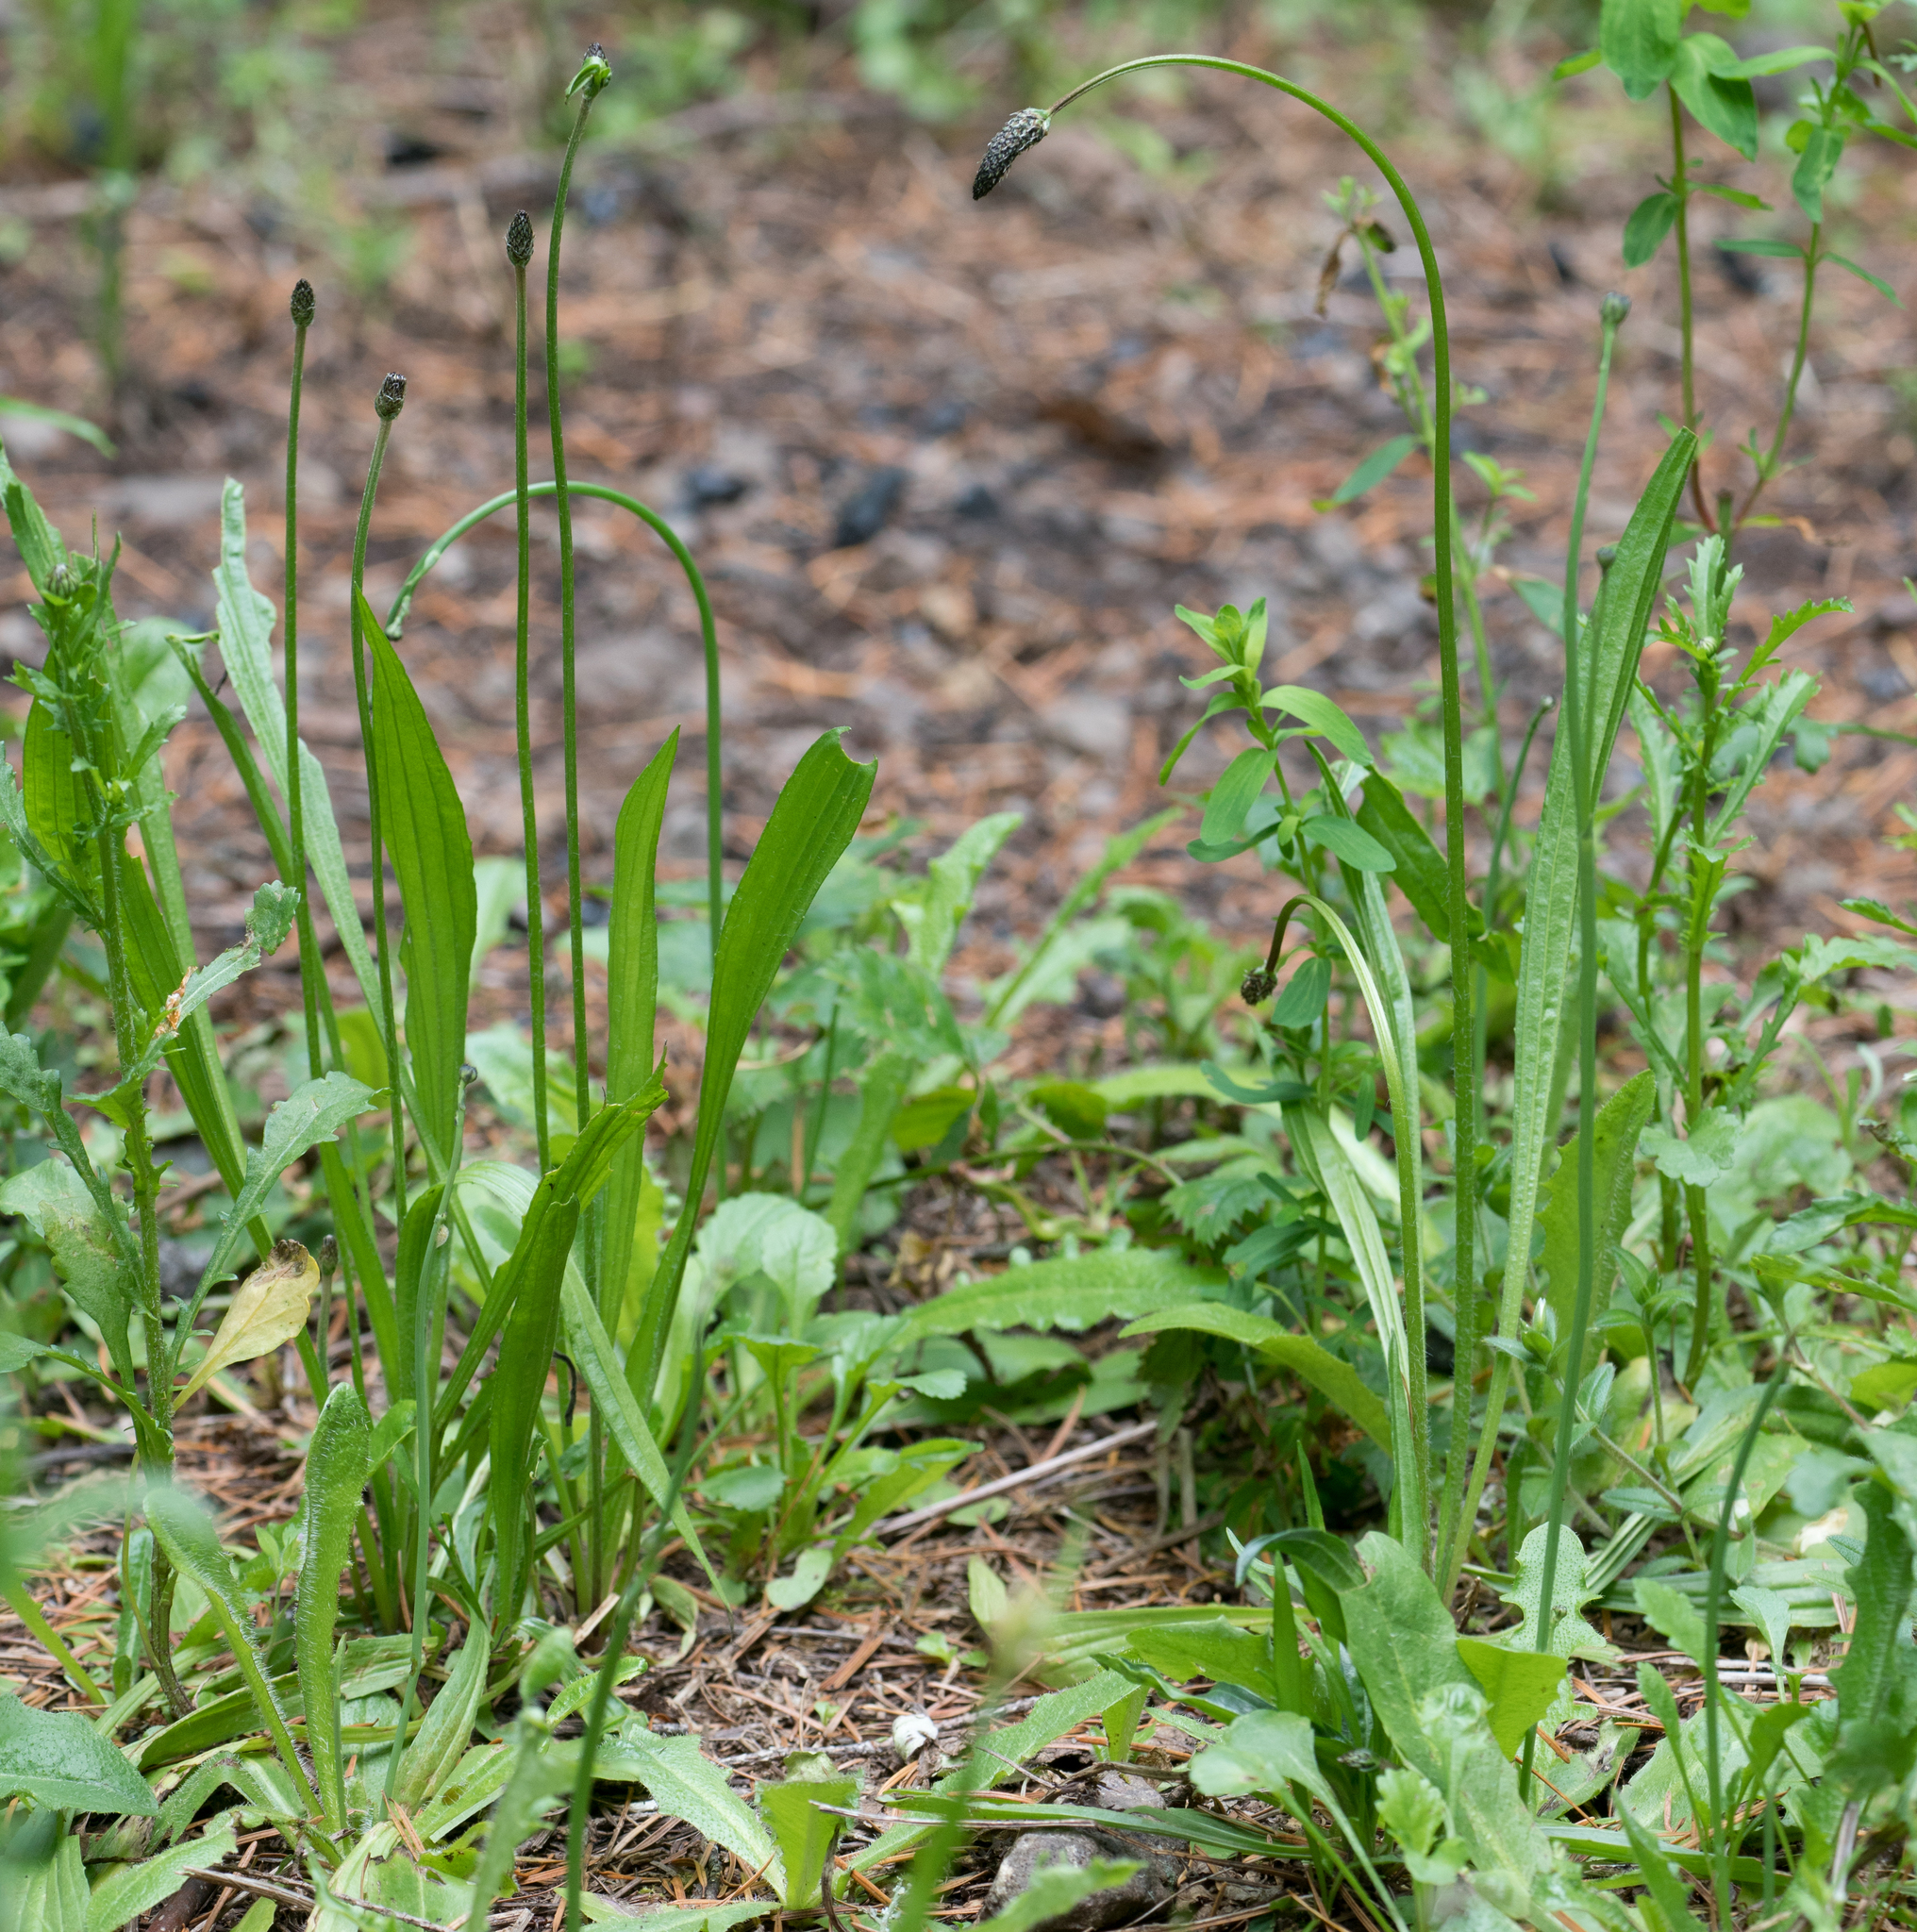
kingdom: Plantae
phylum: Tracheophyta
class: Magnoliopsida
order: Lamiales
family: Plantaginaceae
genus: Plantago
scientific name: Plantago lanceolata
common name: Ribwort plantain
